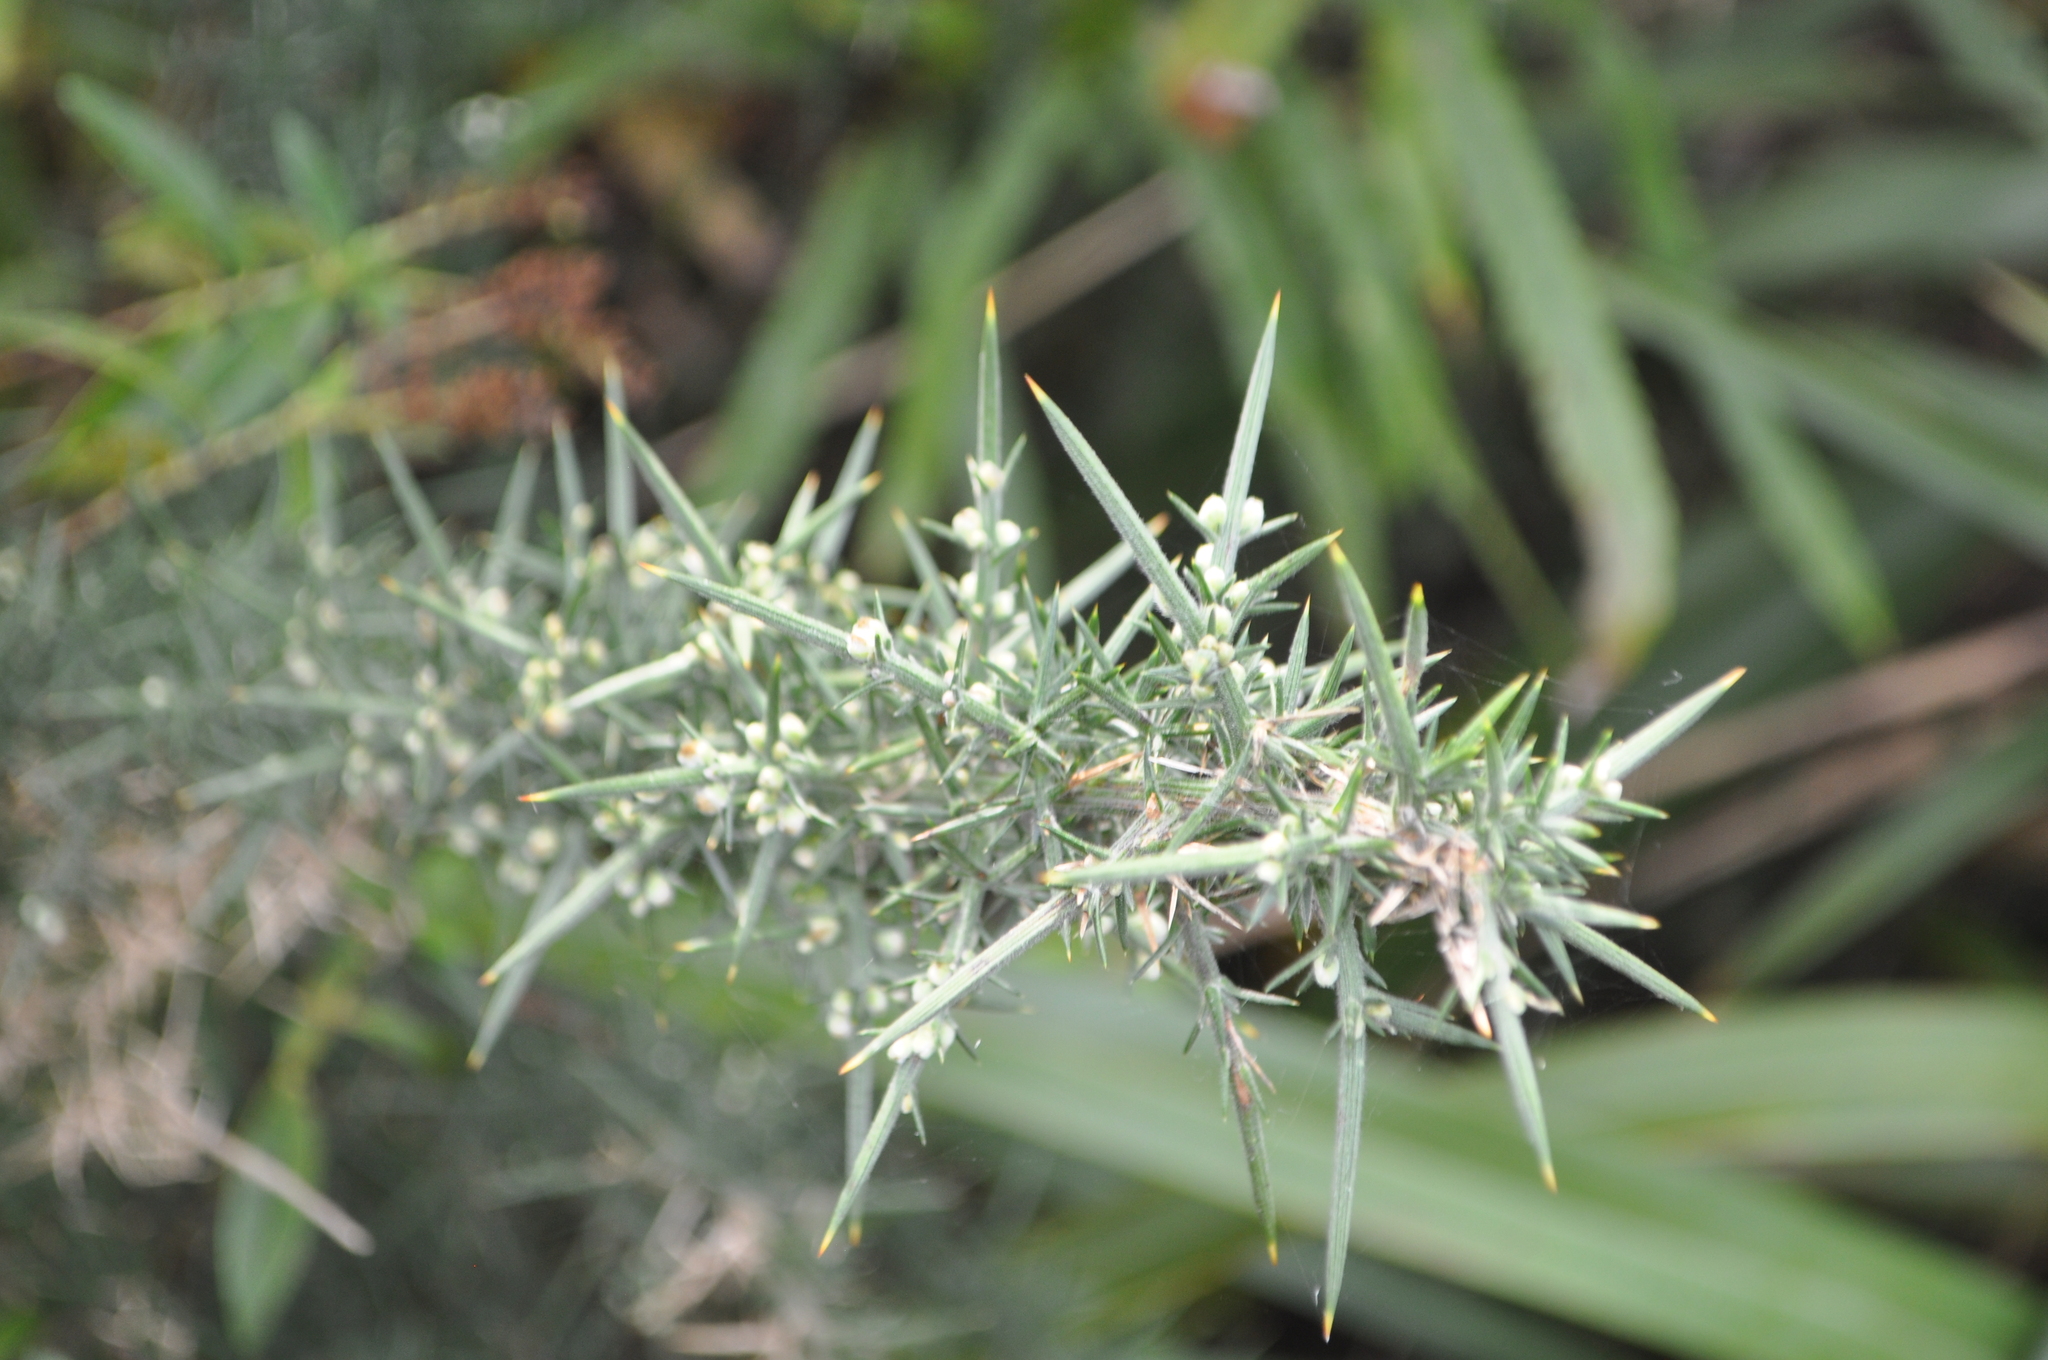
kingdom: Plantae
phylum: Tracheophyta
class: Magnoliopsida
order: Fabales
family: Fabaceae
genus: Ulex
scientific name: Ulex europaeus
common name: Common gorse
